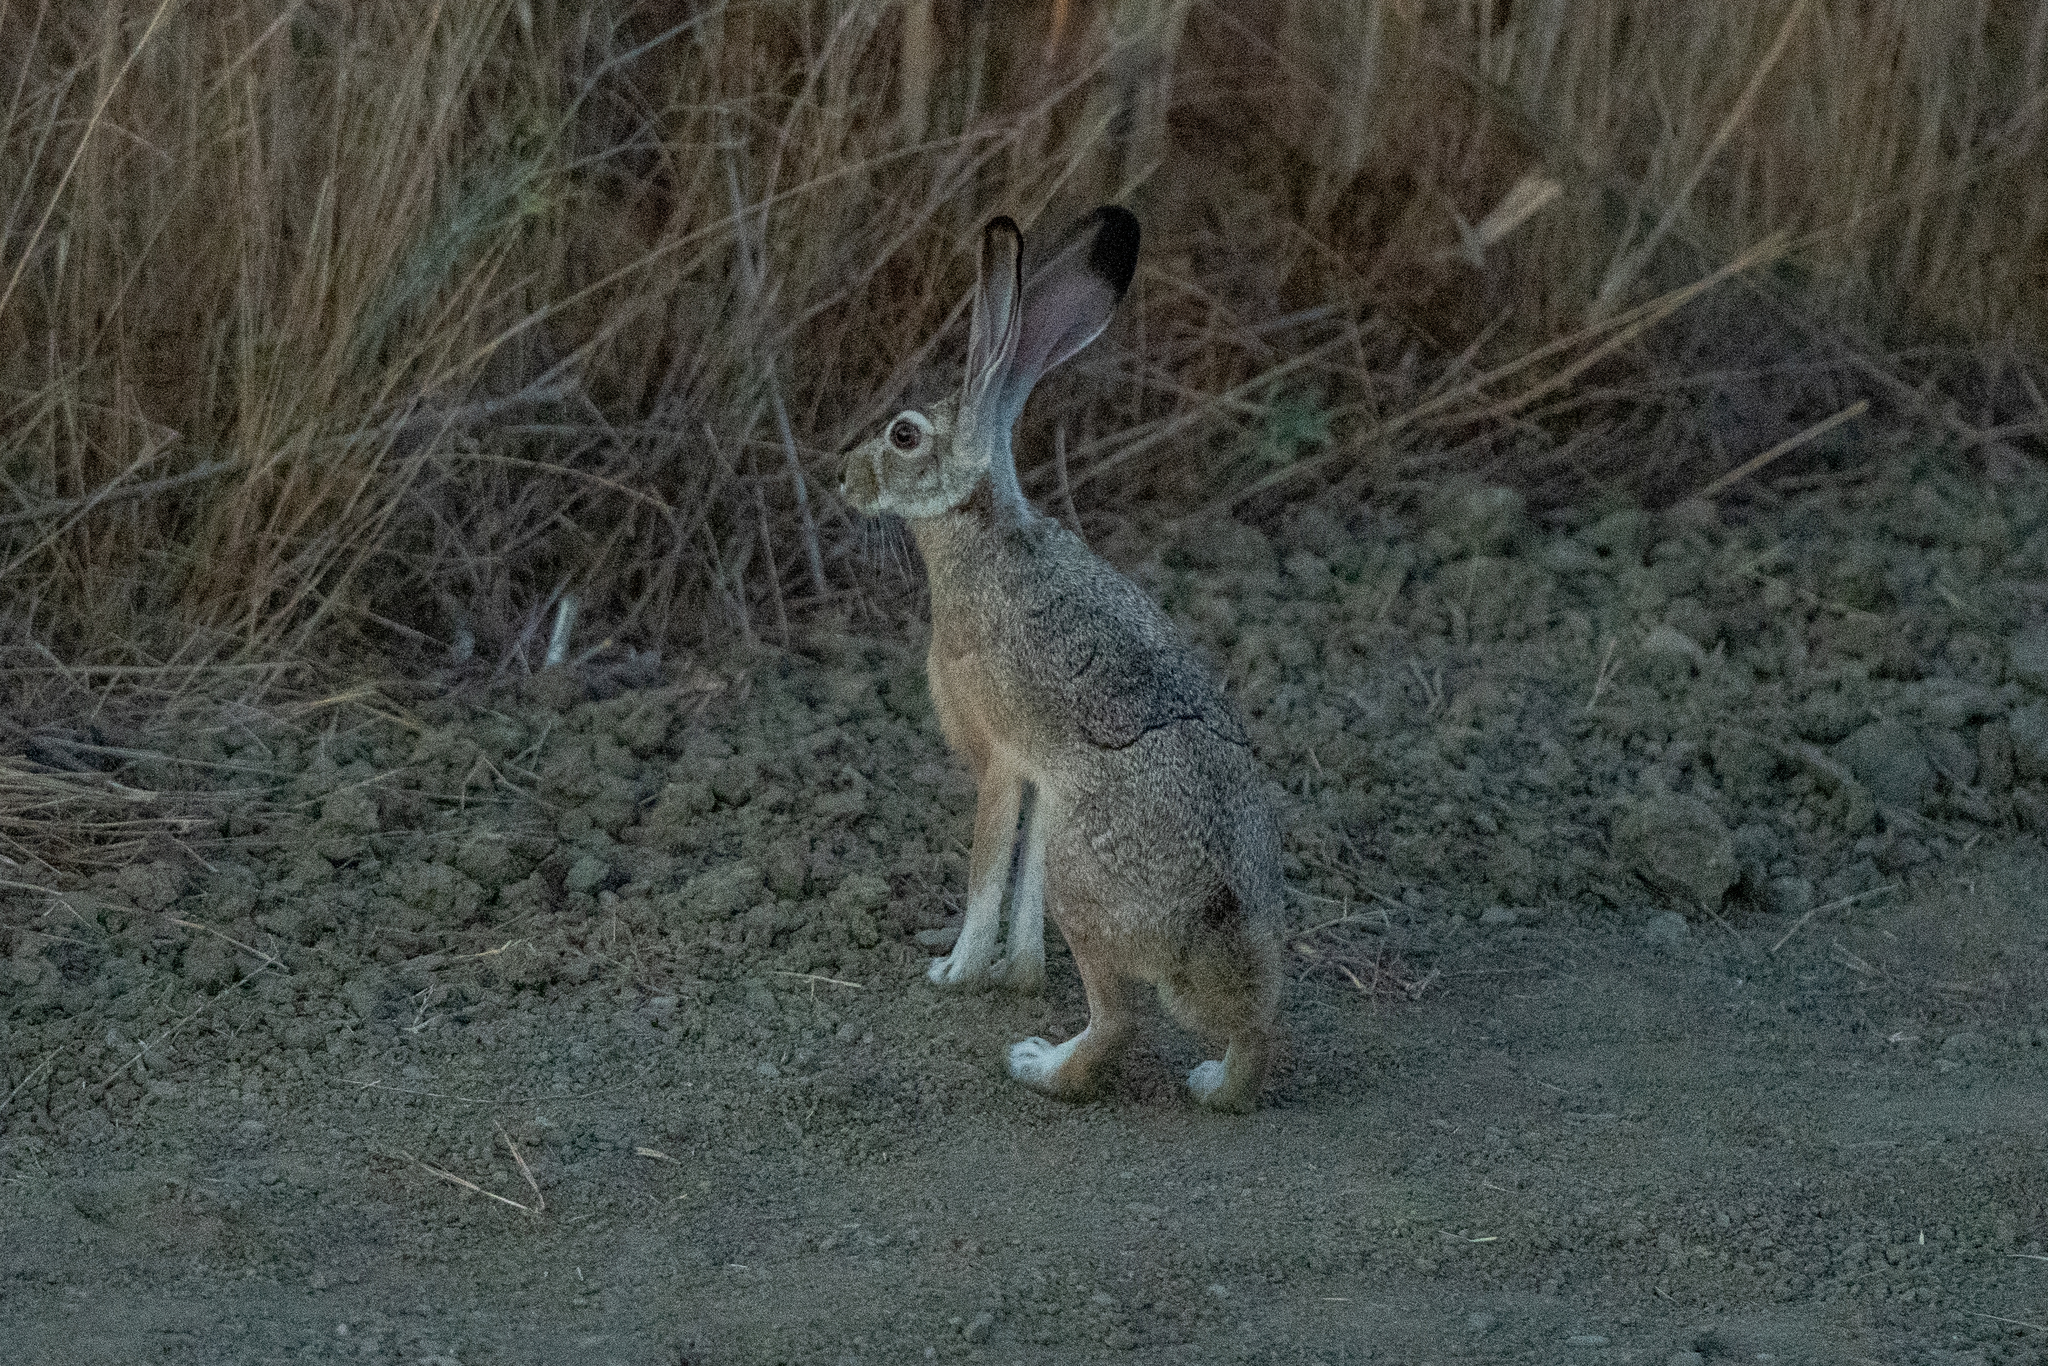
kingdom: Animalia
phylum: Chordata
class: Mammalia
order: Lagomorpha
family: Leporidae
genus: Lepus
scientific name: Lepus californicus
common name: Black-tailed jackrabbit
